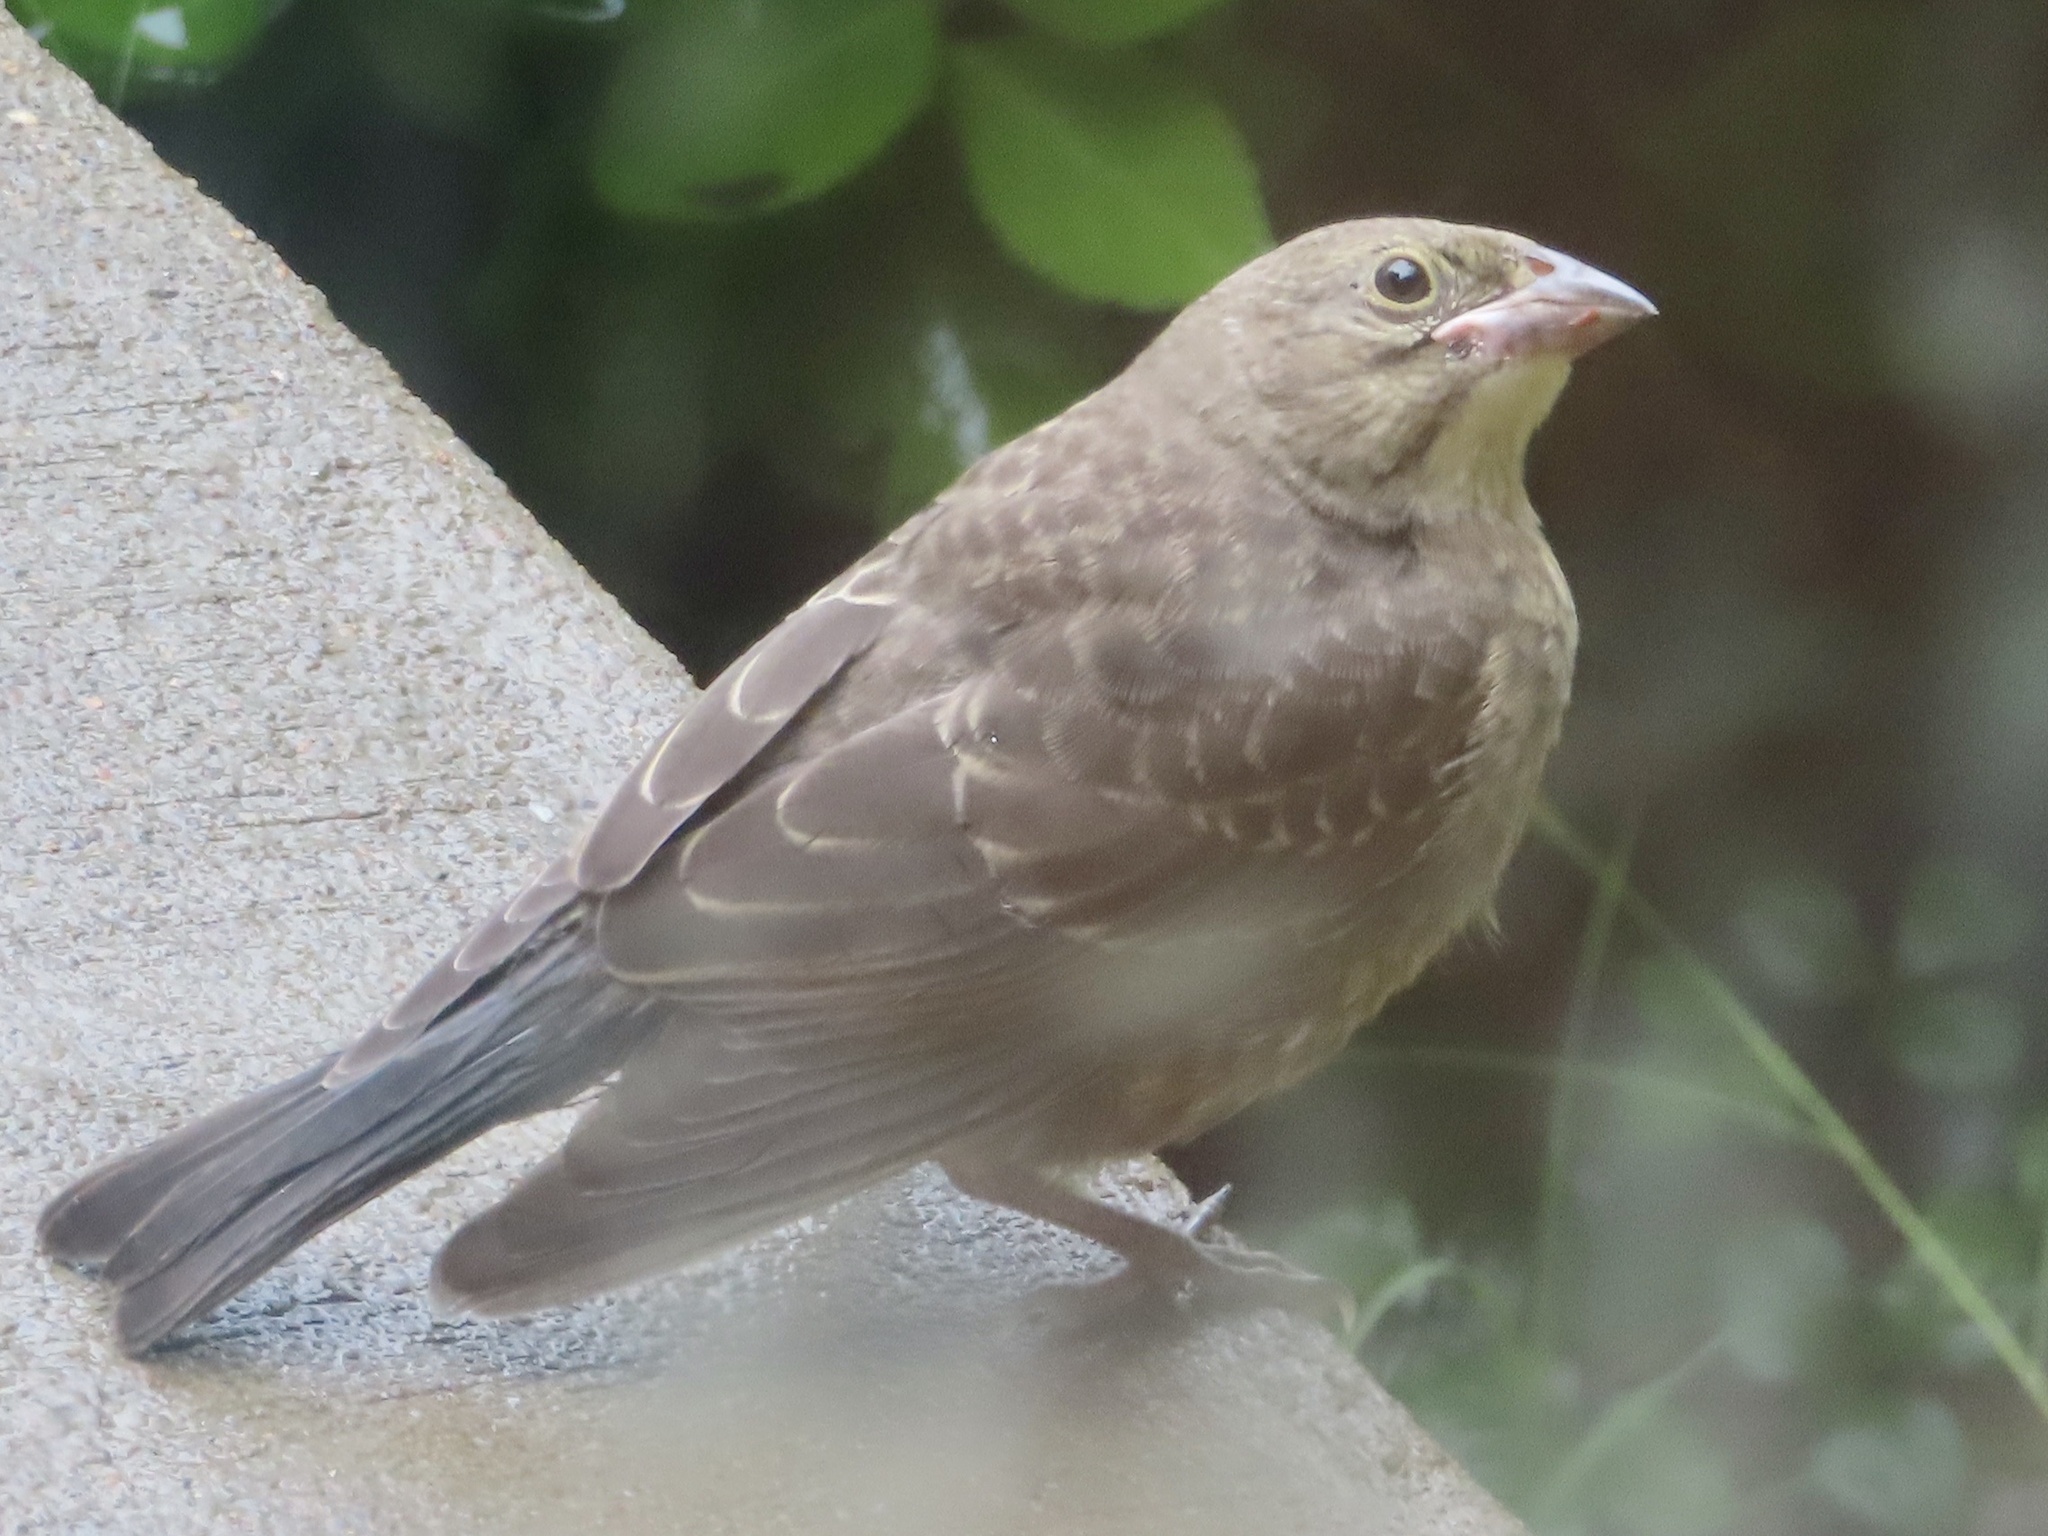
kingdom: Animalia
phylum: Chordata
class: Aves
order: Passeriformes
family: Icteridae
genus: Molothrus
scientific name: Molothrus ater
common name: Brown-headed cowbird
